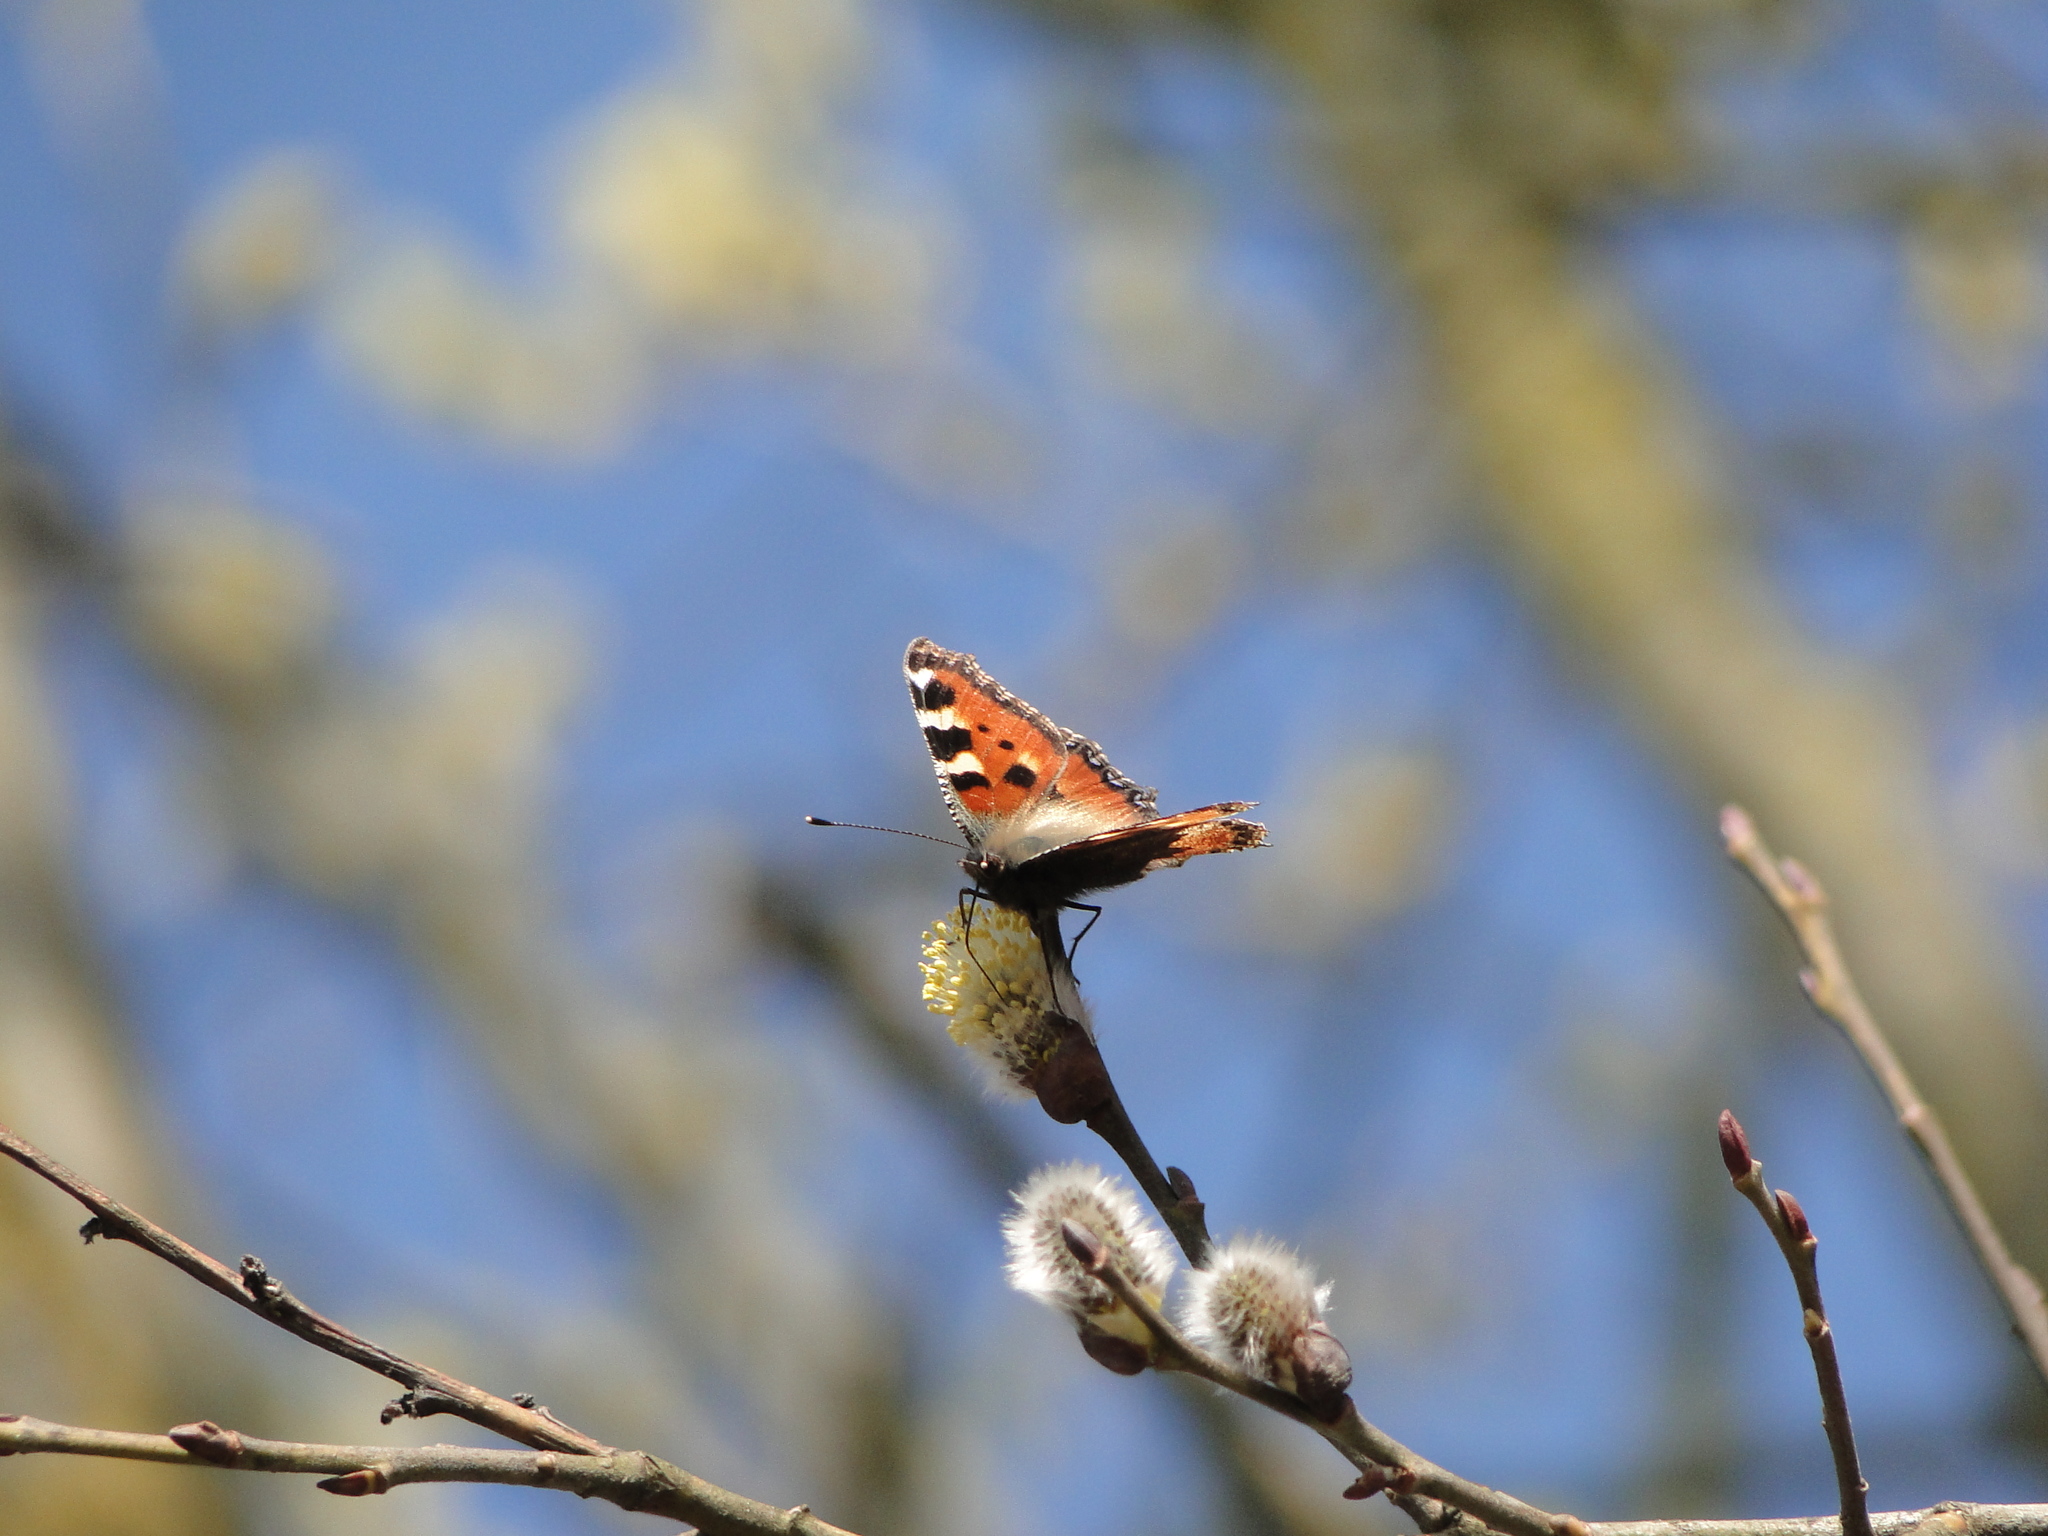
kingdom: Animalia
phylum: Arthropoda
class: Insecta
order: Lepidoptera
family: Nymphalidae
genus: Aglais
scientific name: Aglais urticae
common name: Small tortoiseshell
